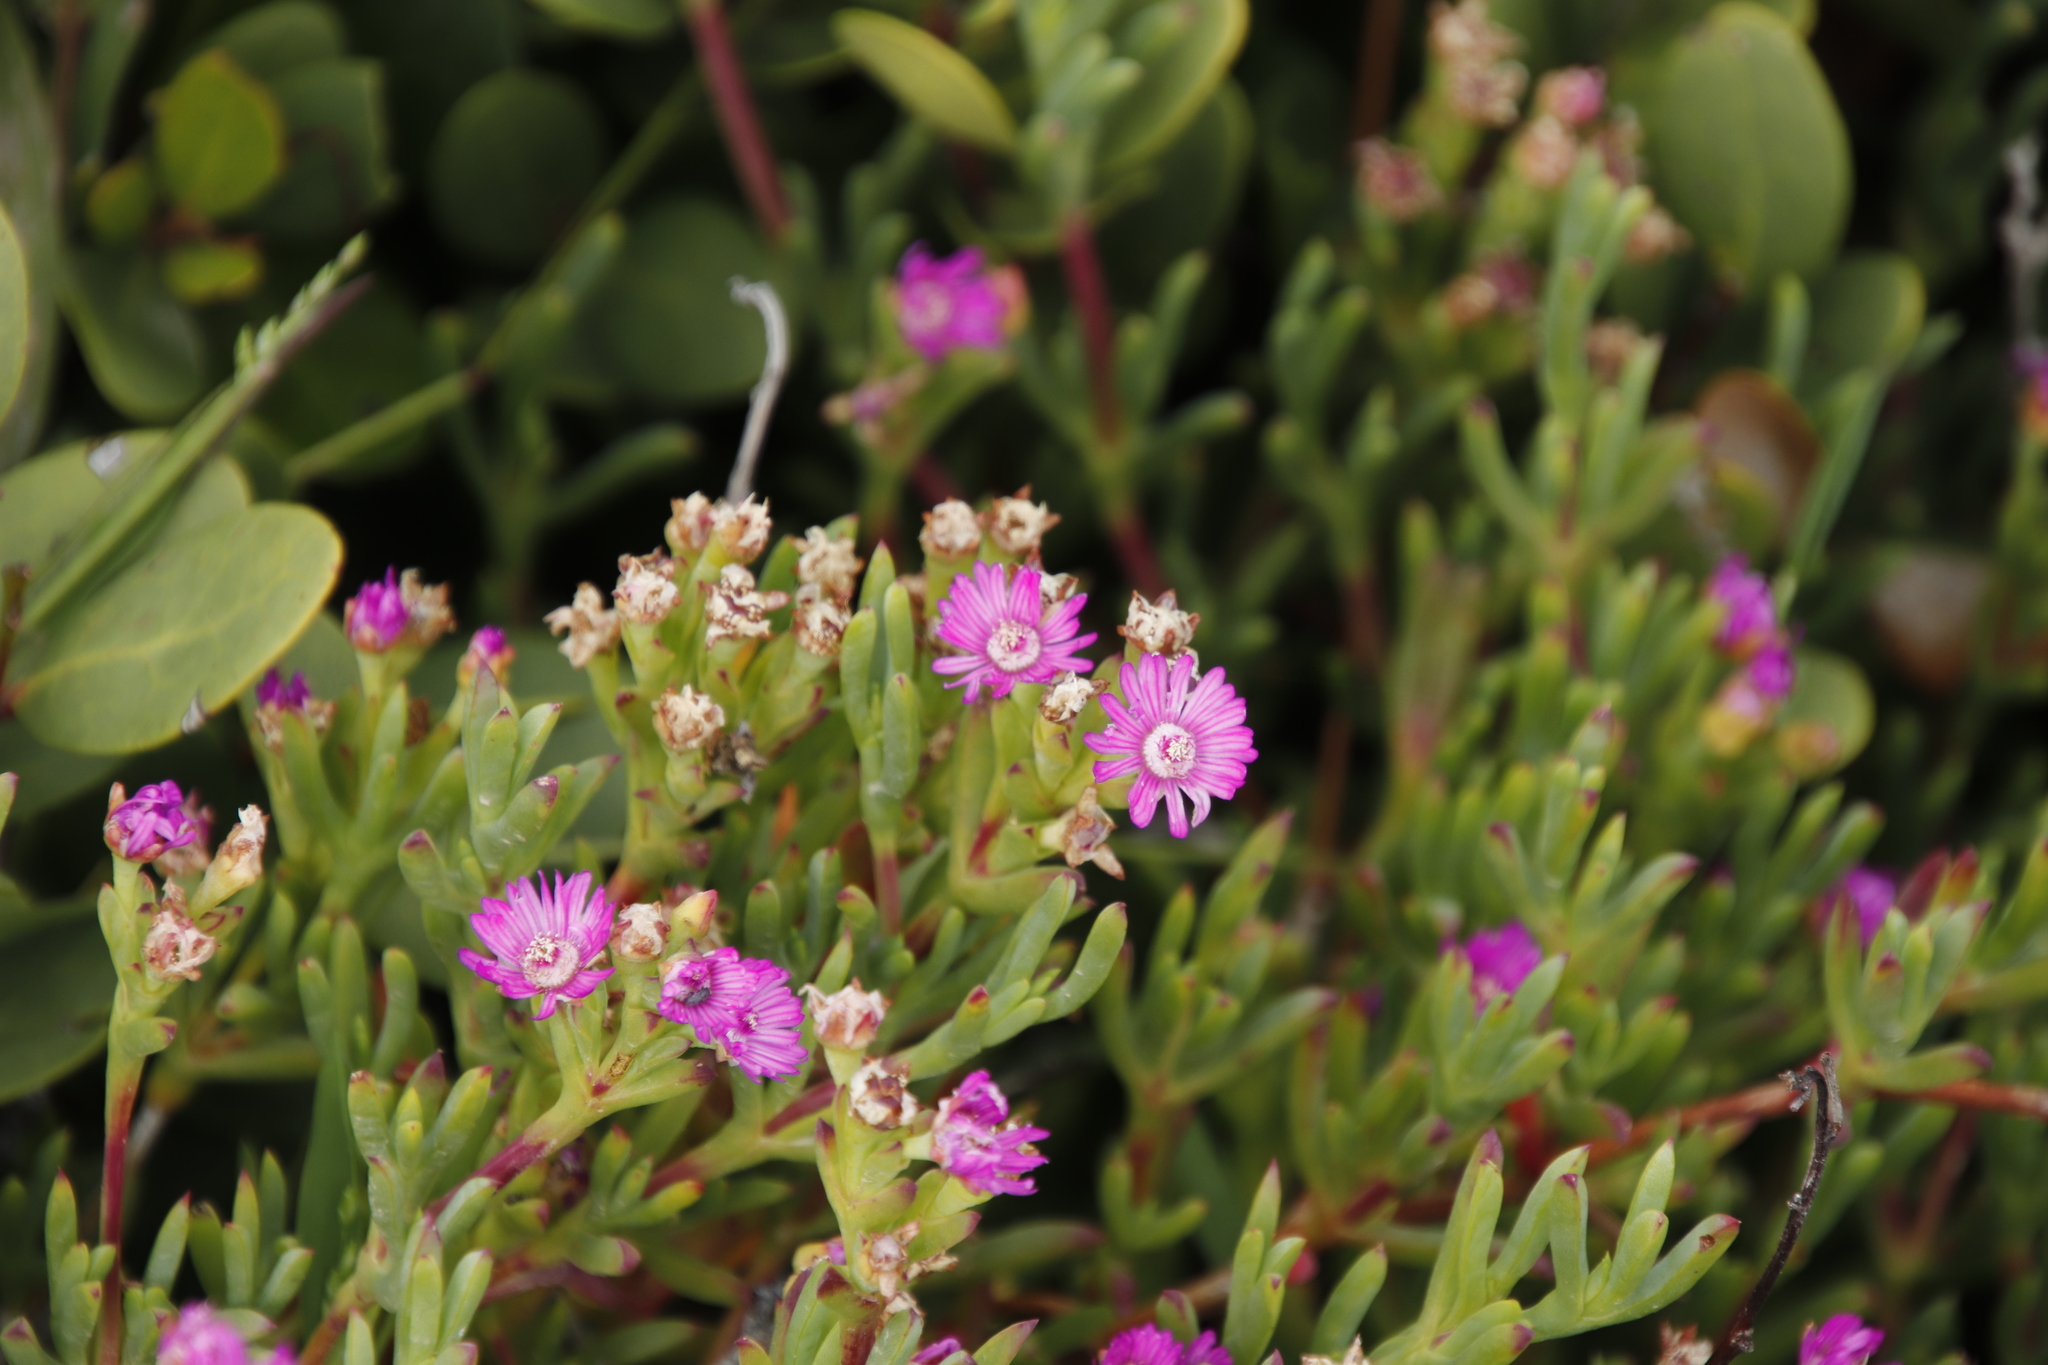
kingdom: Plantae
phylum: Tracheophyta
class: Magnoliopsida
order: Caryophyllales
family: Aizoaceae
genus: Ruschia
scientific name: Ruschia macowanii
